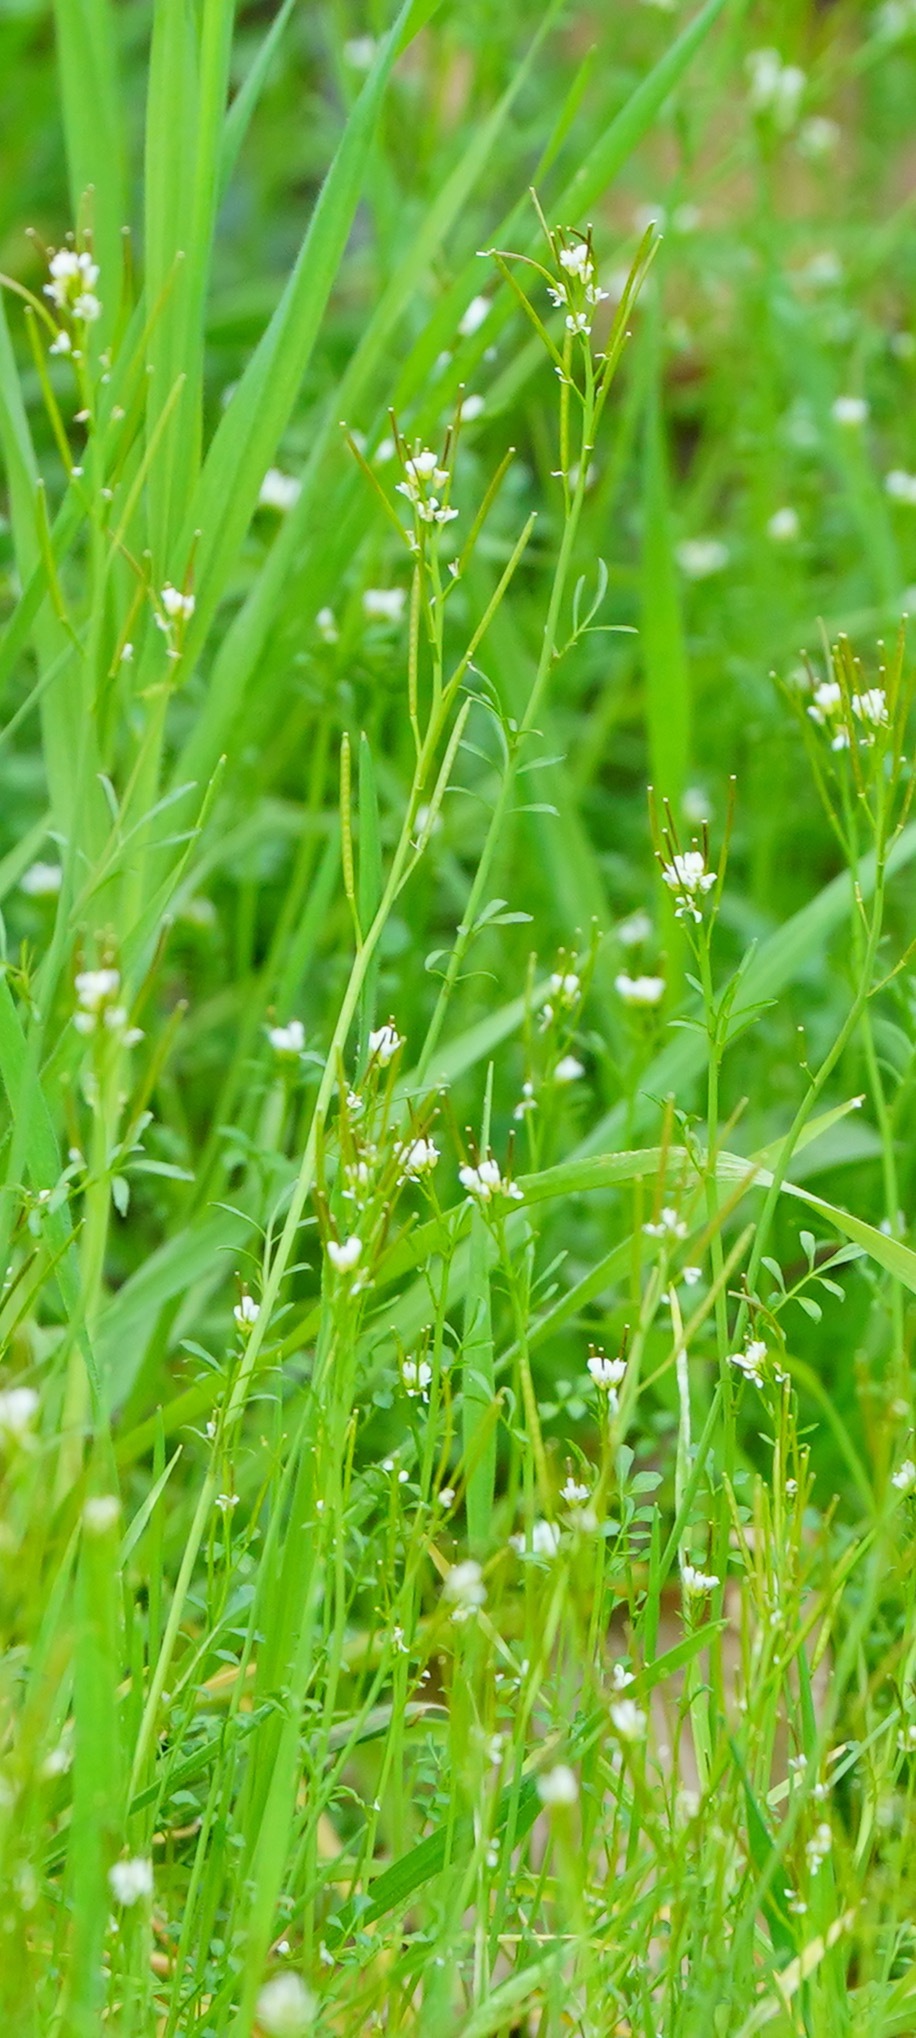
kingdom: Plantae
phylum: Tracheophyta
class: Magnoliopsida
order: Brassicales
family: Brassicaceae
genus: Cardamine
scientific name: Cardamine hirsuta
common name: Hairy bittercress
